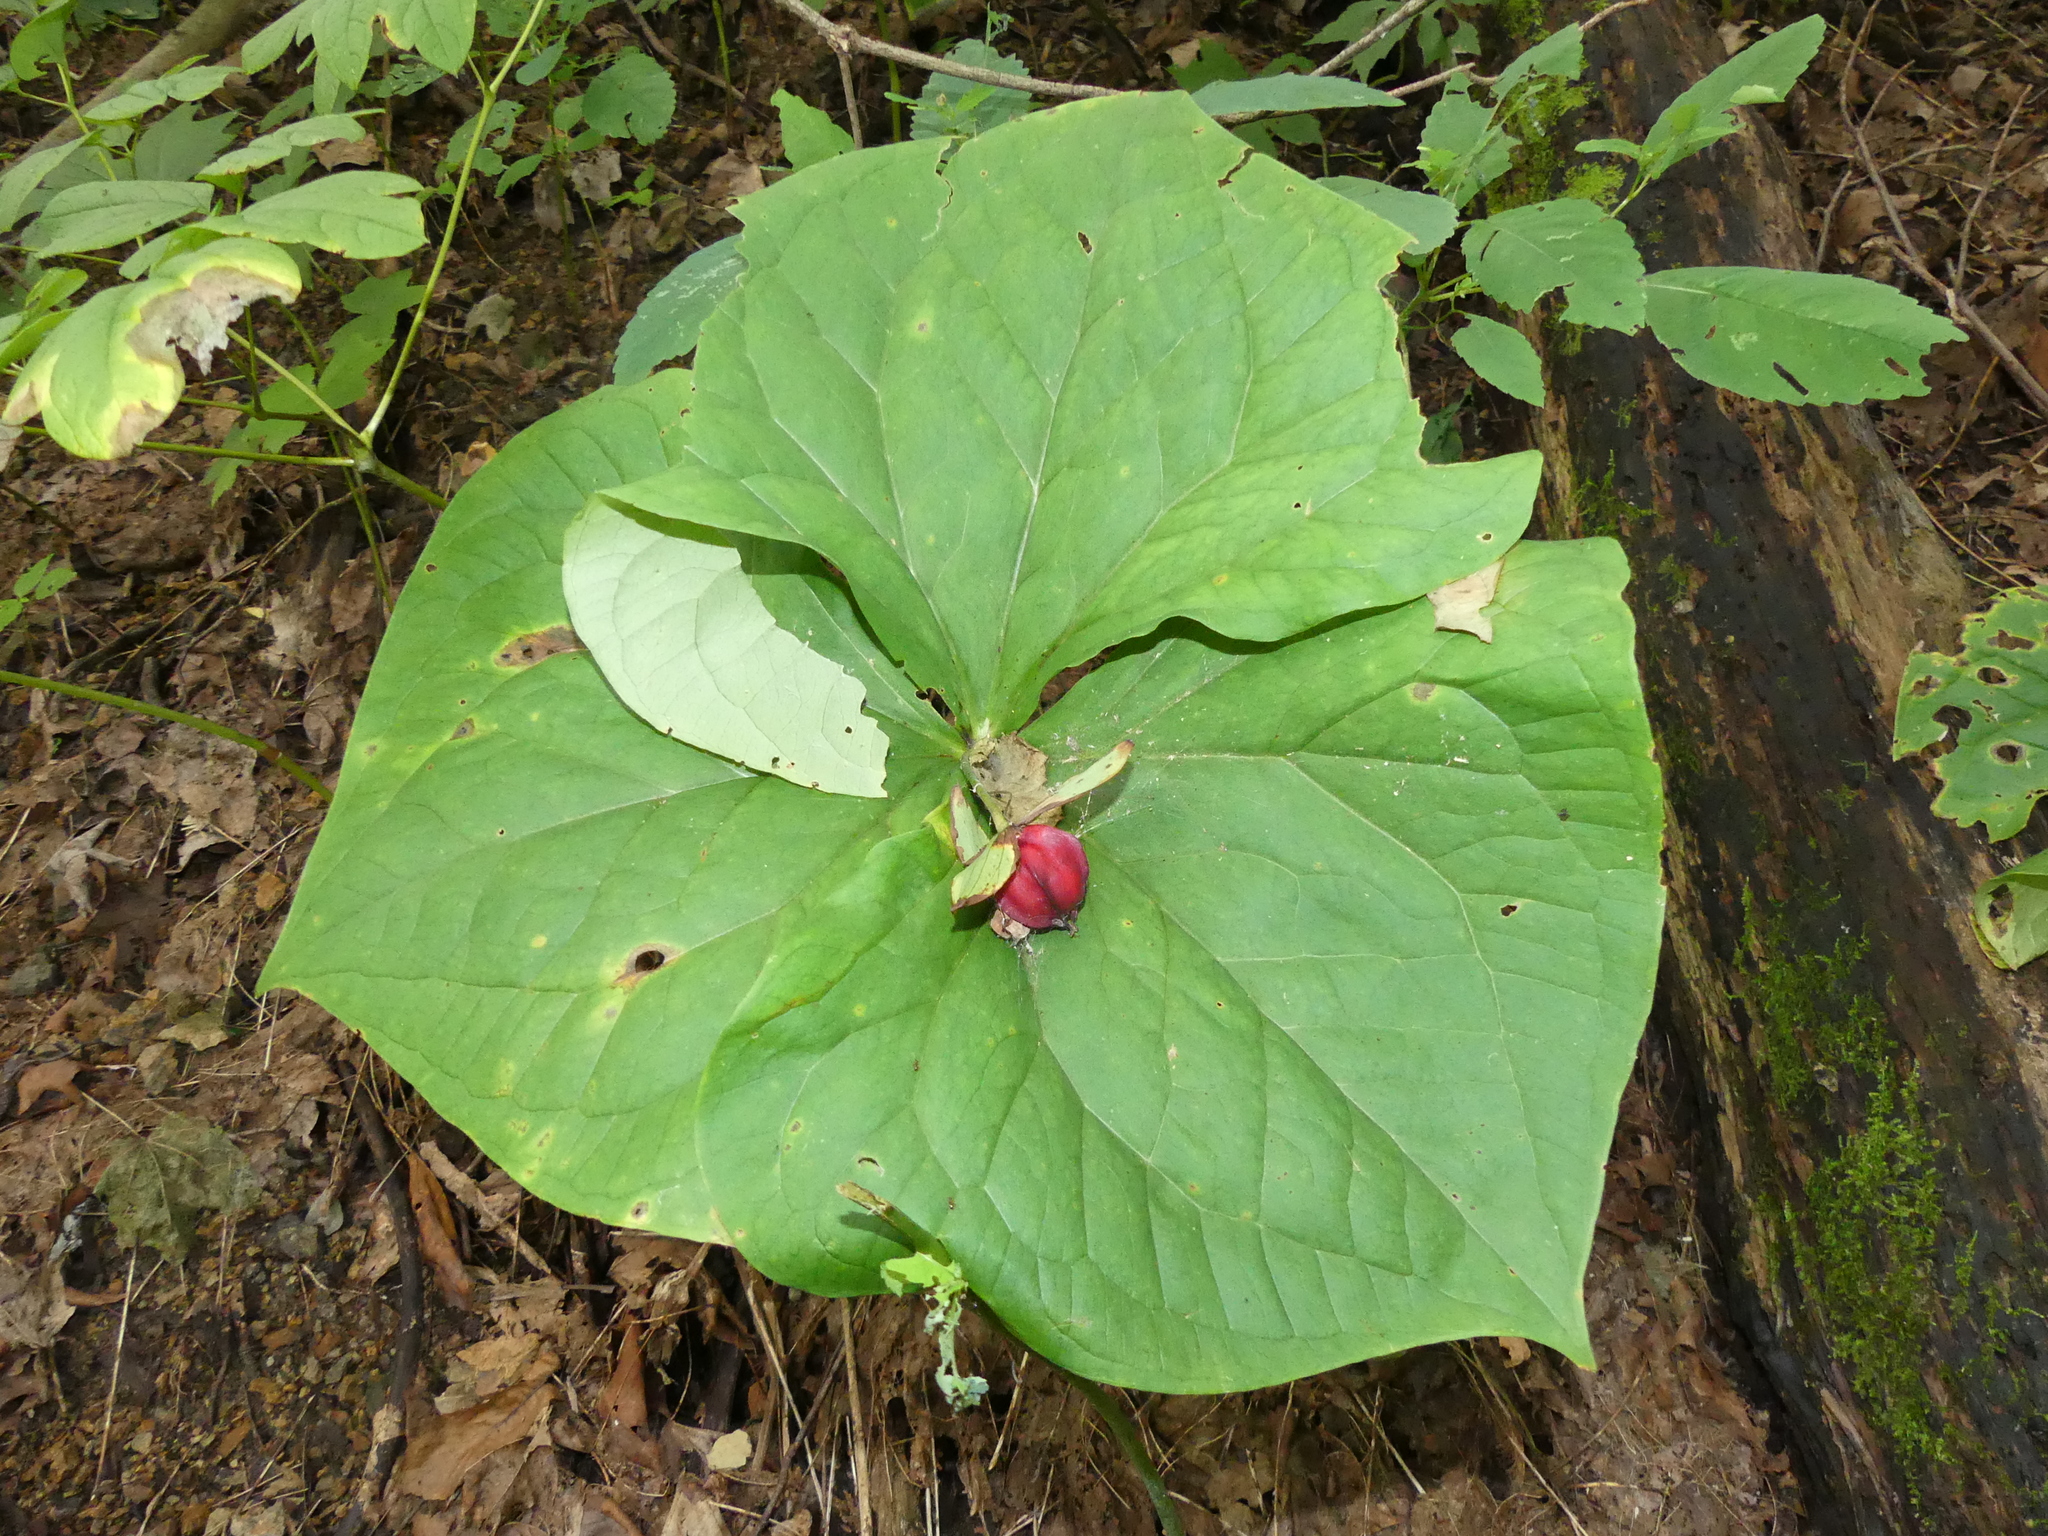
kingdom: Plantae
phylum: Tracheophyta
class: Liliopsida
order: Liliales
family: Melanthiaceae
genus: Trillium
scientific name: Trillium erectum
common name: Purple trillium
